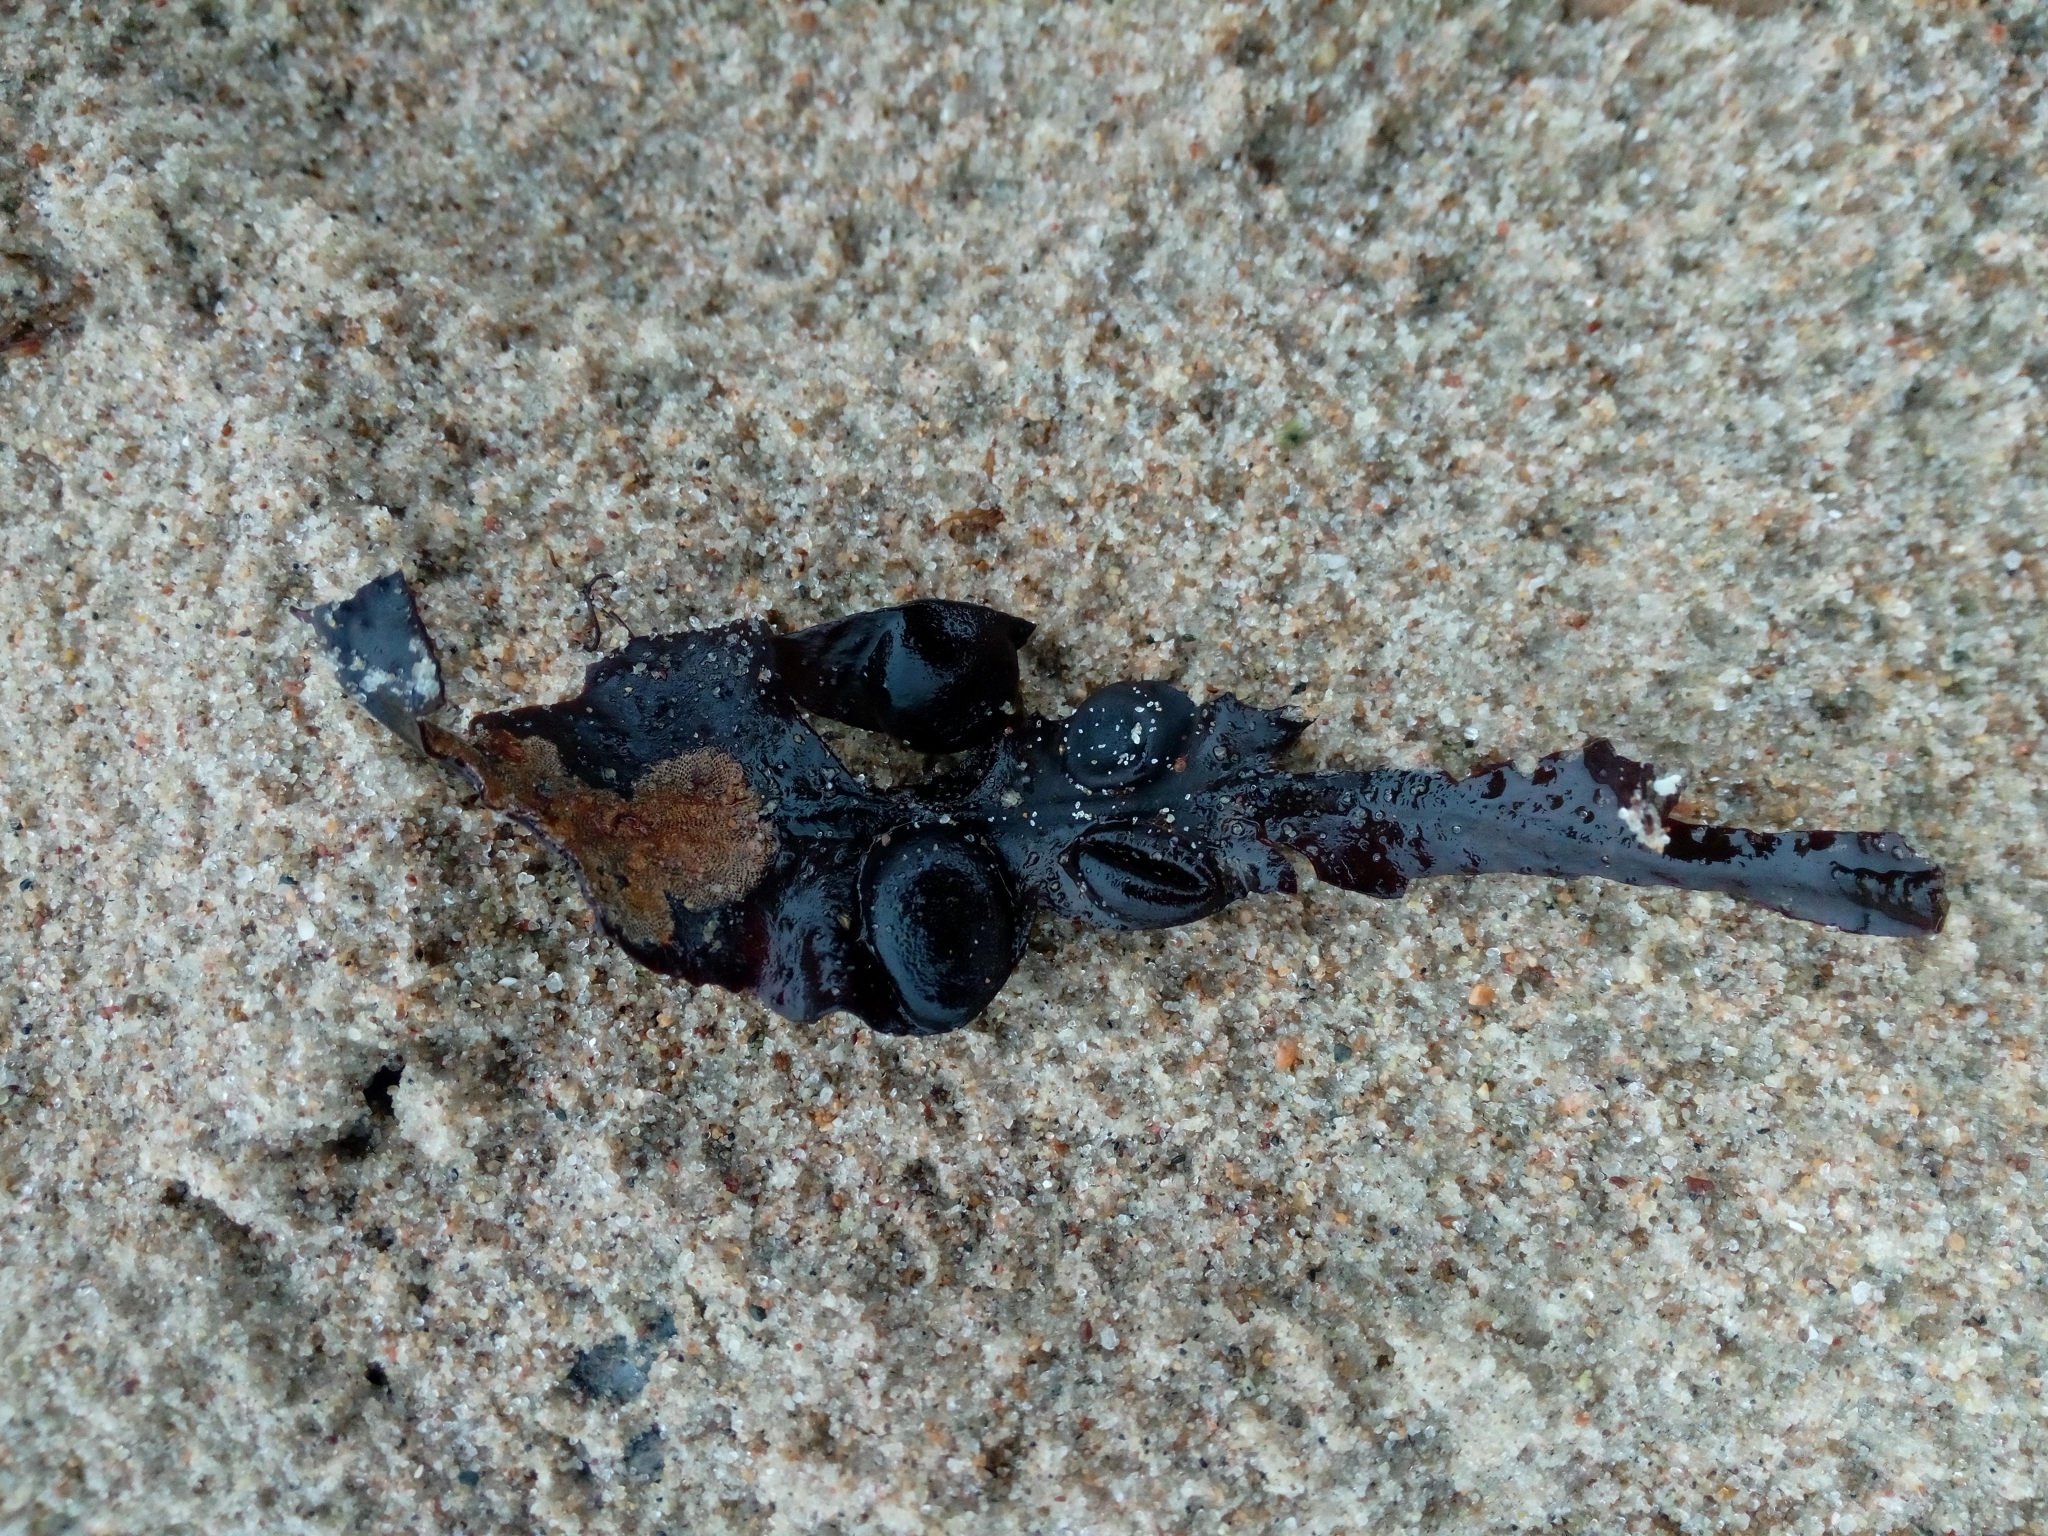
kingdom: Chromista
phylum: Ochrophyta
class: Phaeophyceae
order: Fucales
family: Fucaceae
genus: Fucus
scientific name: Fucus vesiculosus
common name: Bladder wrack
